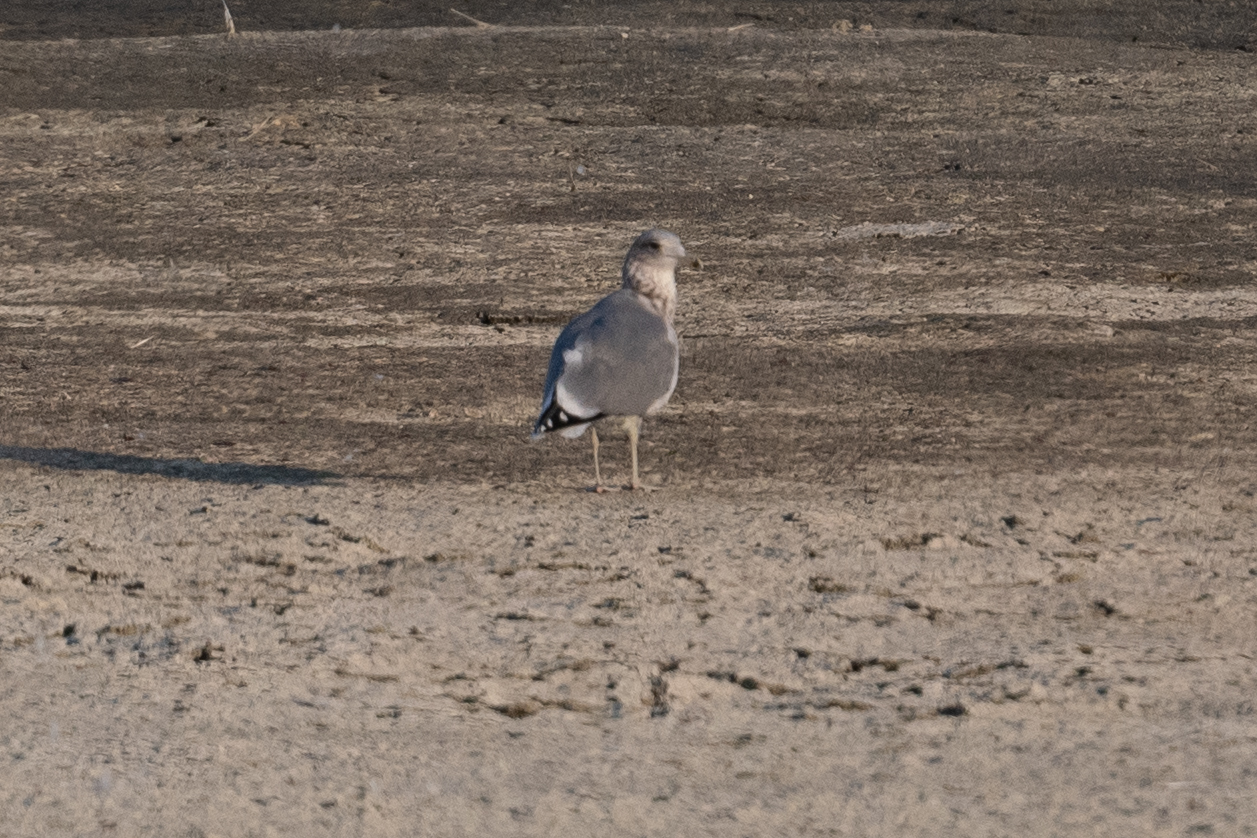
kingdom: Animalia
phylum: Chordata
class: Aves
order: Charadriiformes
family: Laridae
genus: Larus
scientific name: Larus californicus
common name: California gull
